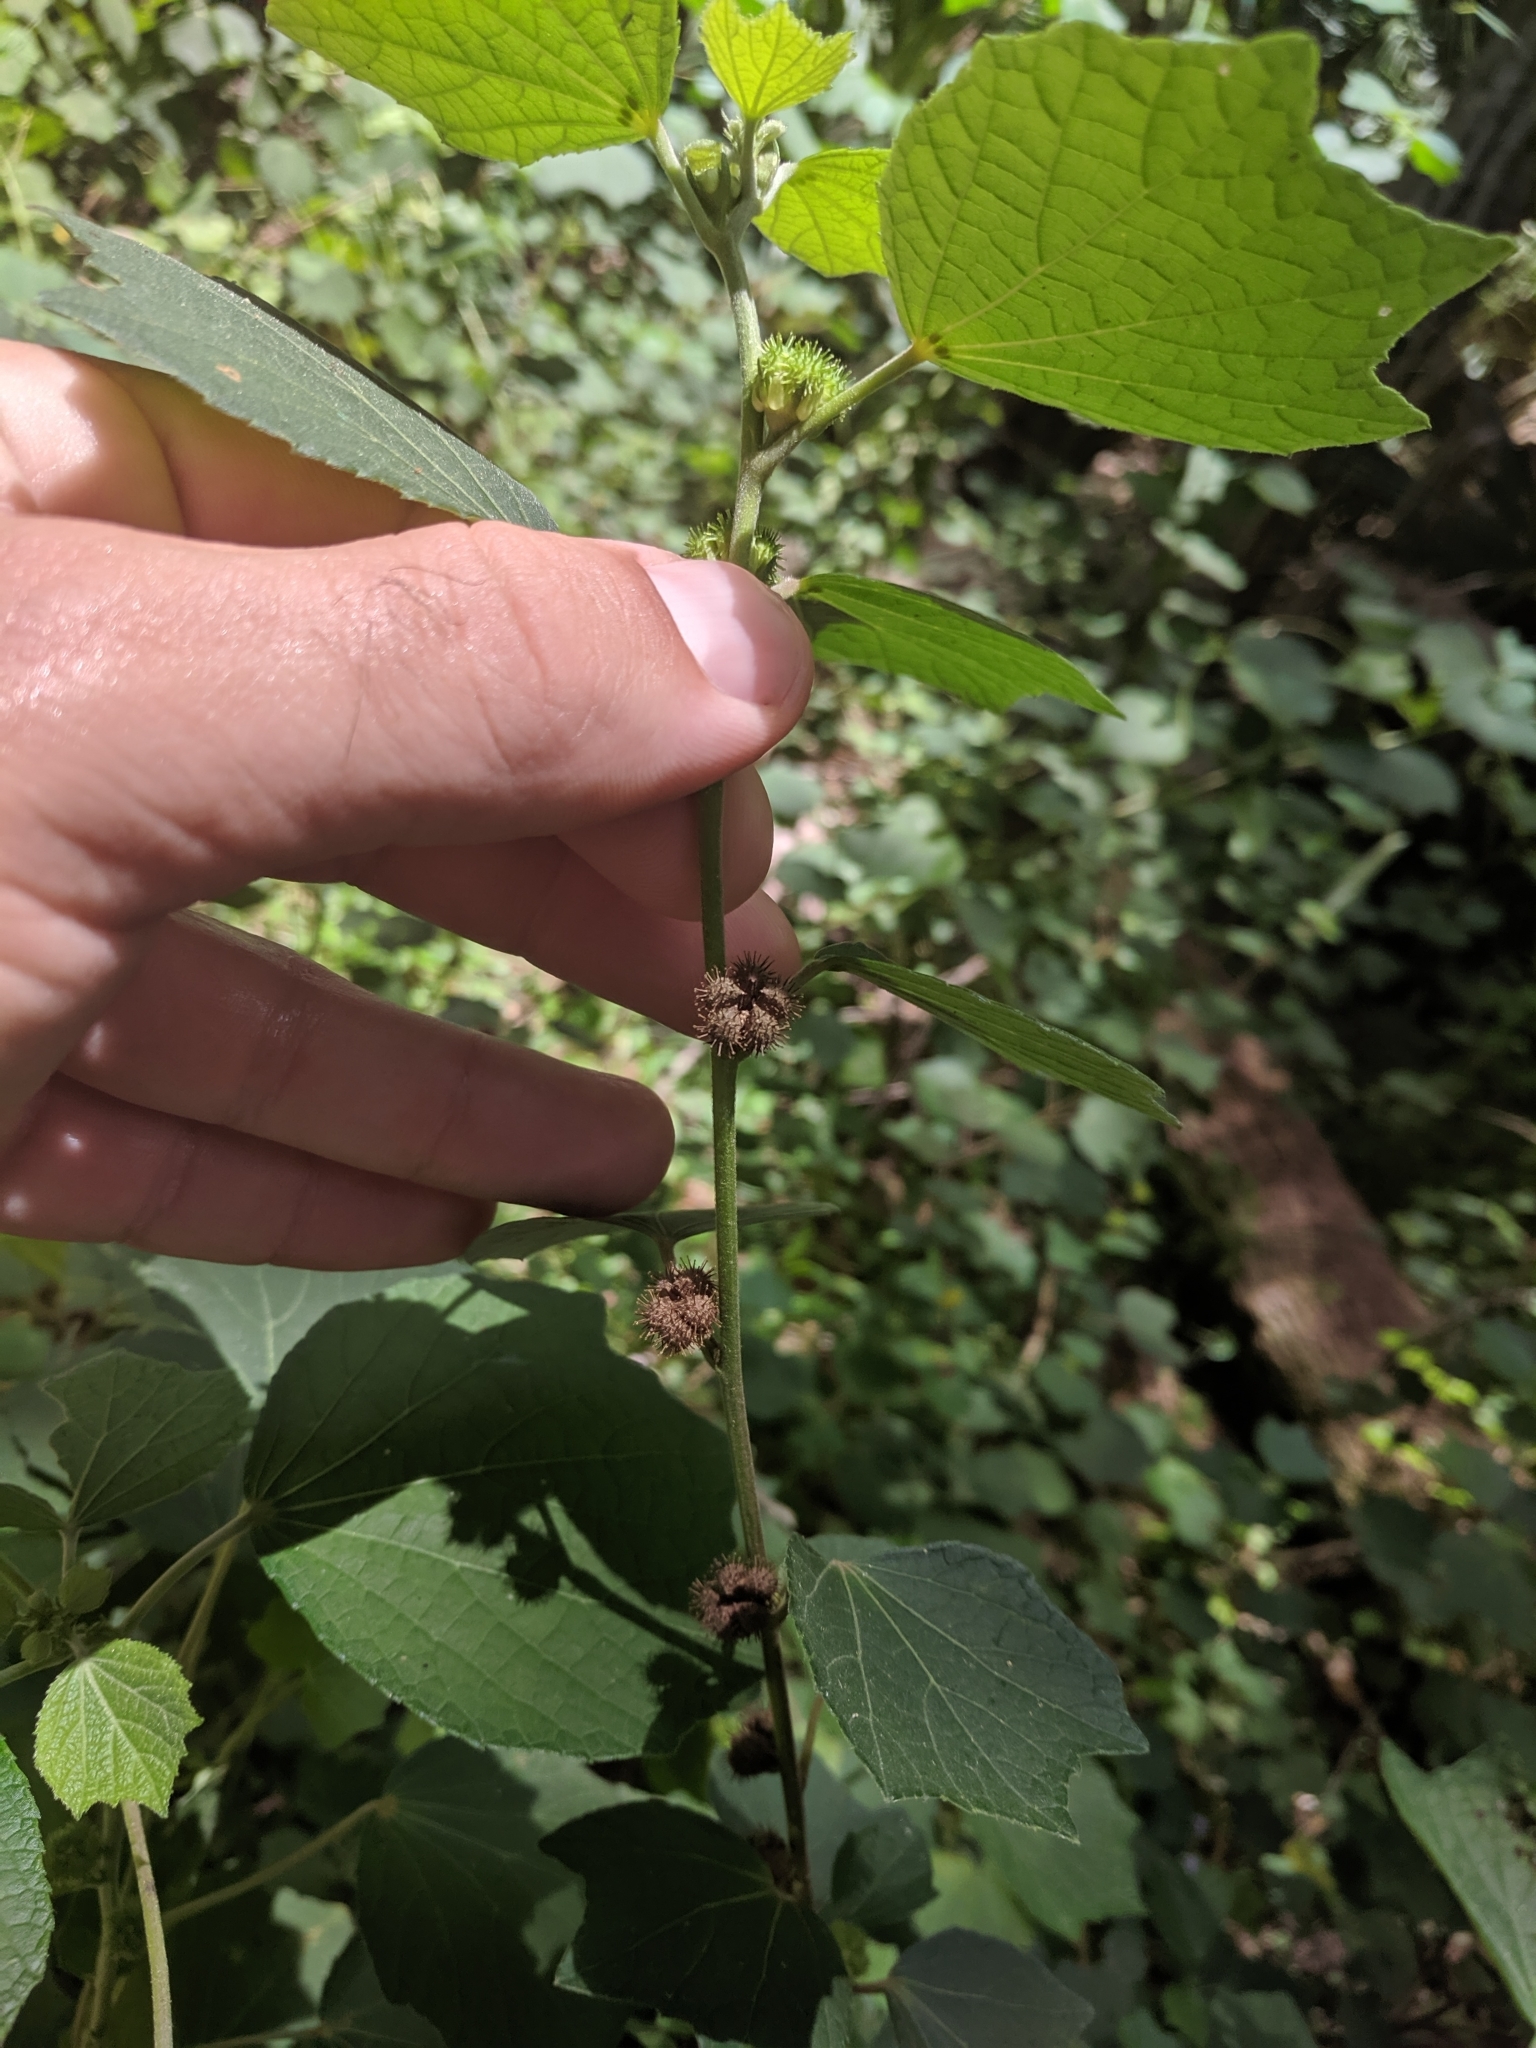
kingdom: Plantae
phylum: Tracheophyta
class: Magnoliopsida
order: Malvales
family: Malvaceae
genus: Urena
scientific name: Urena lobata
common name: Caesarweed
